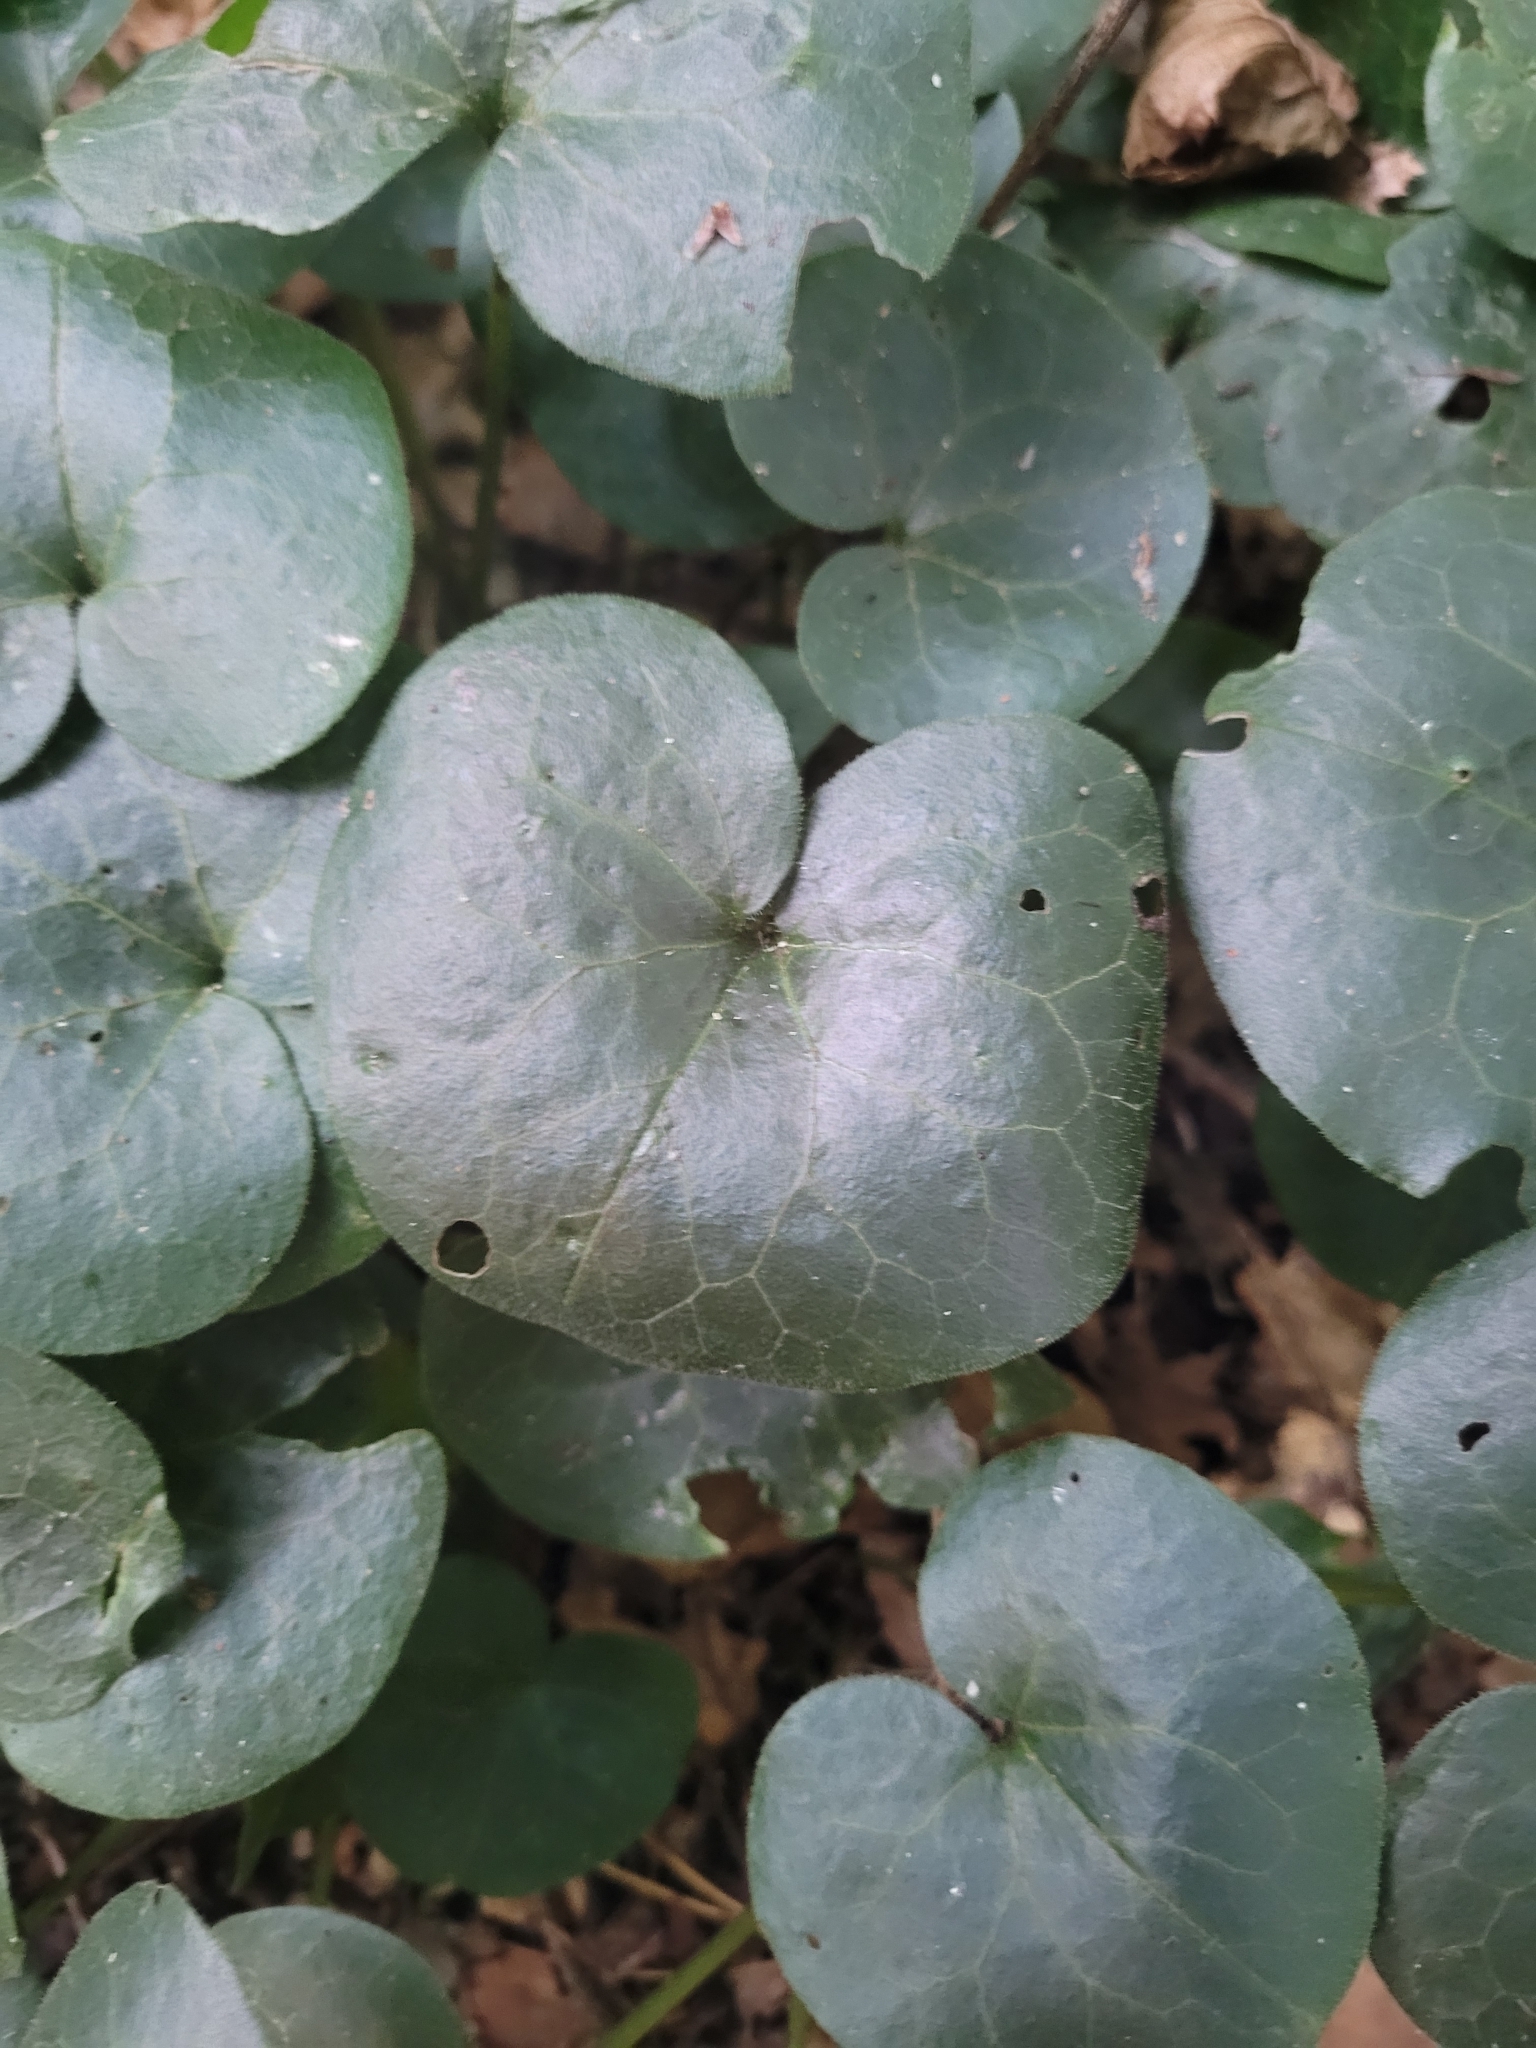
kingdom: Plantae
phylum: Tracheophyta
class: Magnoliopsida
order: Piperales
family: Aristolochiaceae
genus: Asarum
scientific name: Asarum europaeum
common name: Asarabacca
